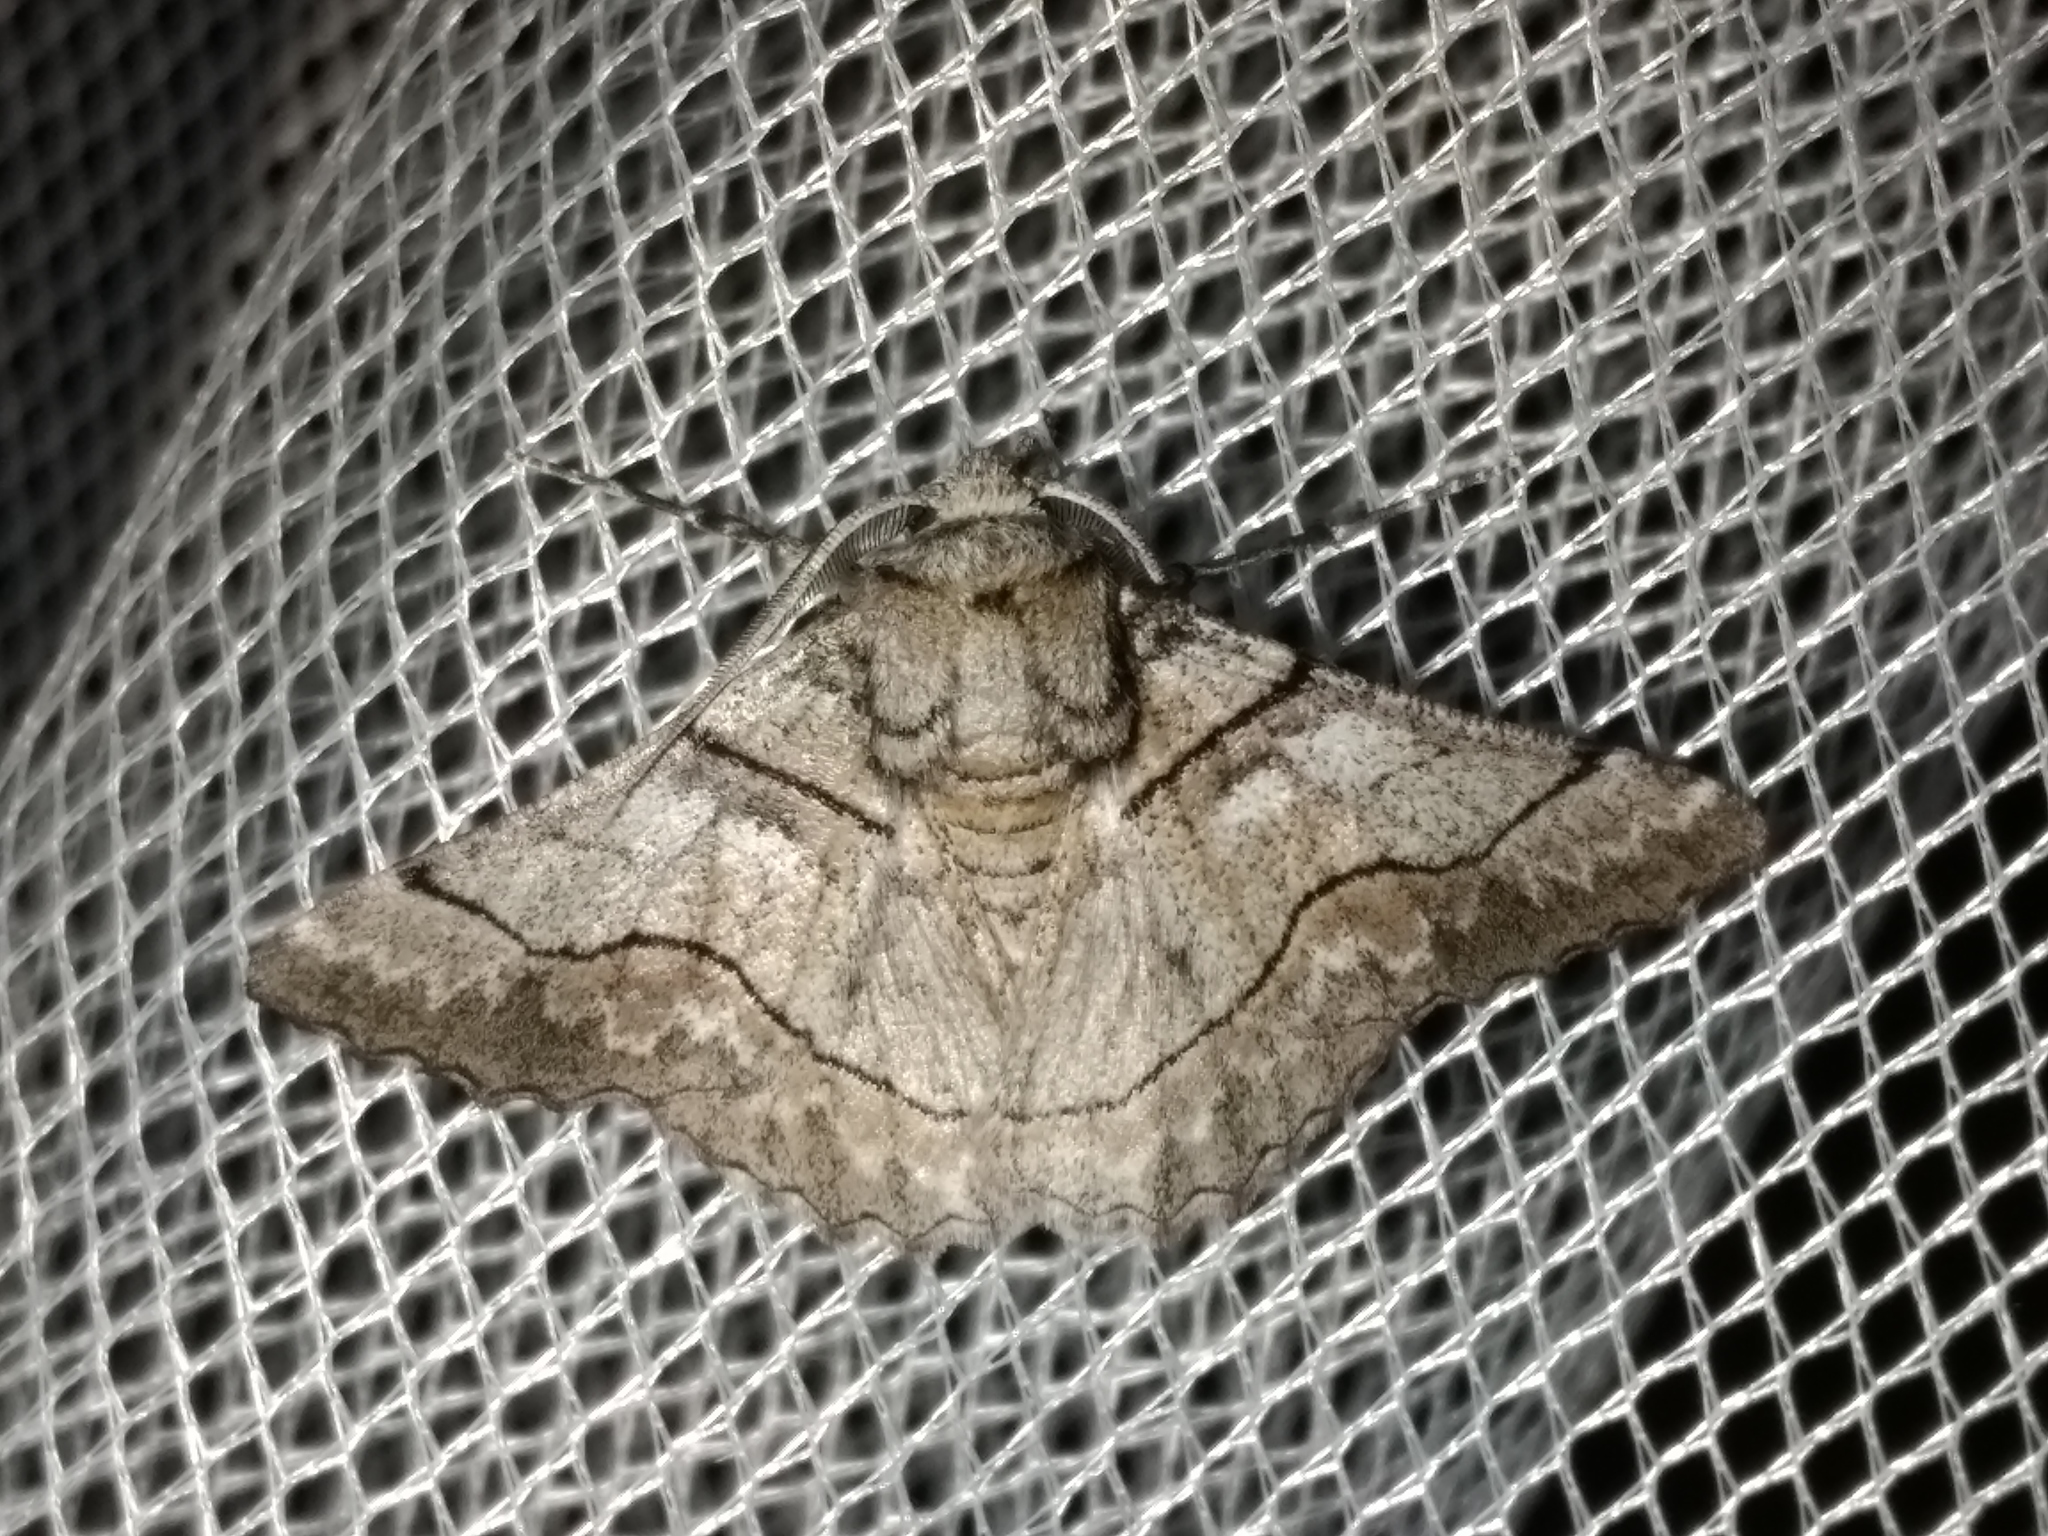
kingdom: Animalia
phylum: Arthropoda
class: Insecta
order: Lepidoptera
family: Geometridae
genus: Hypobapta
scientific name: Hypobapta diffundens
